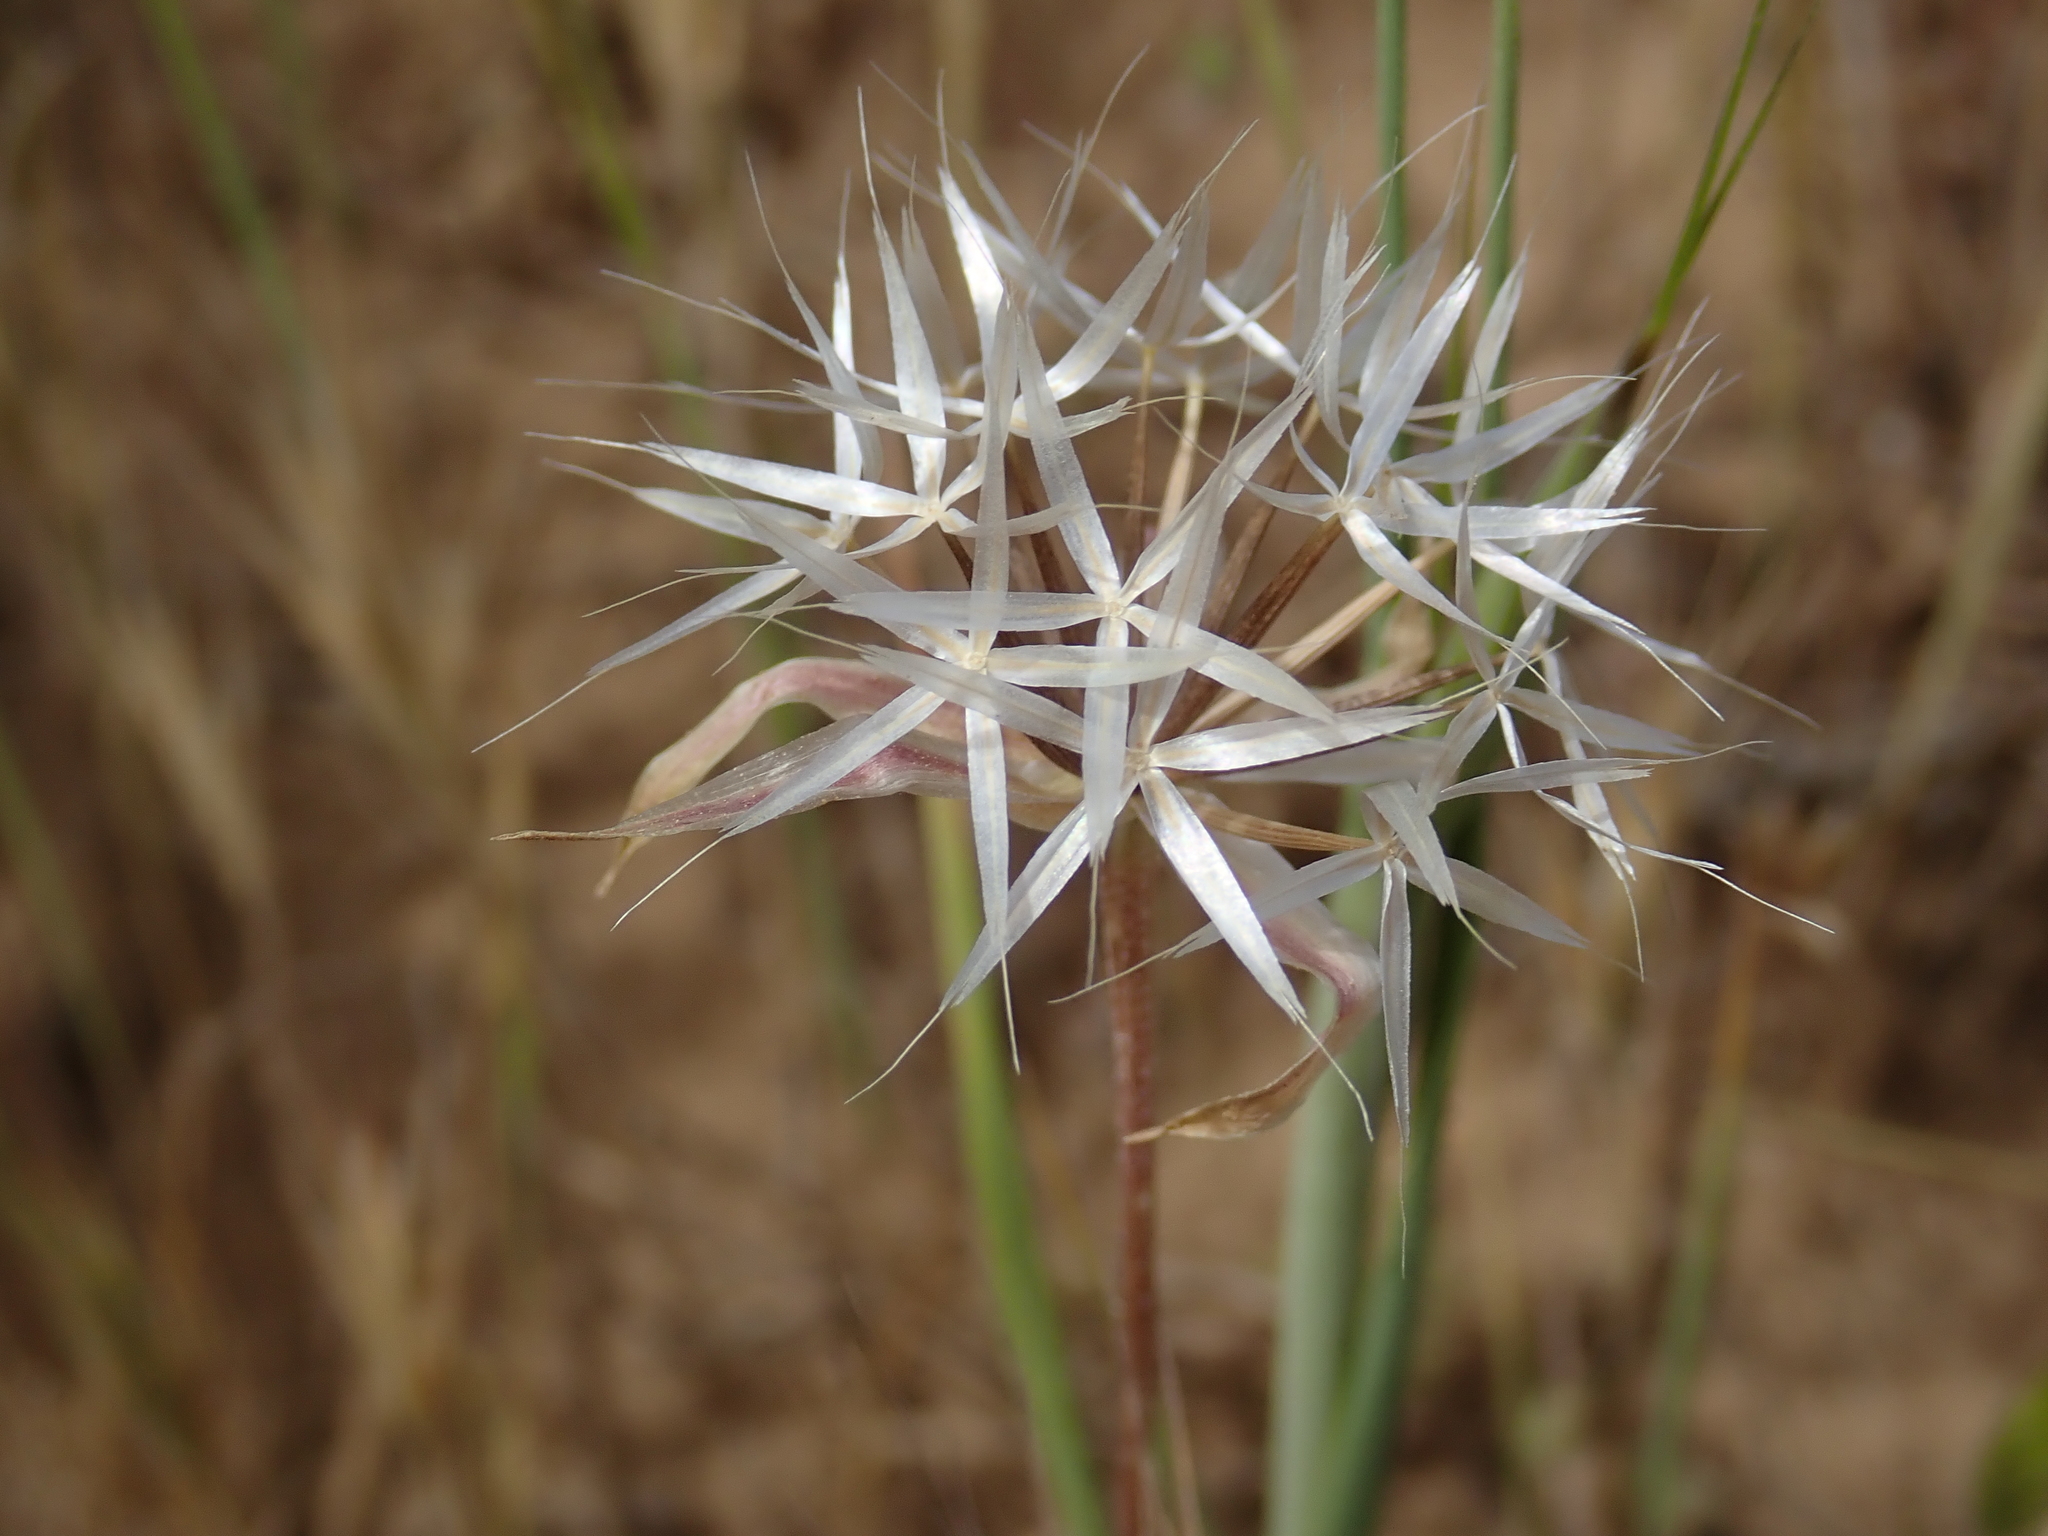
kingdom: Plantae
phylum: Tracheophyta
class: Magnoliopsida
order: Asterales
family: Asteraceae
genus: Microseris
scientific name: Microseris lindleyi
